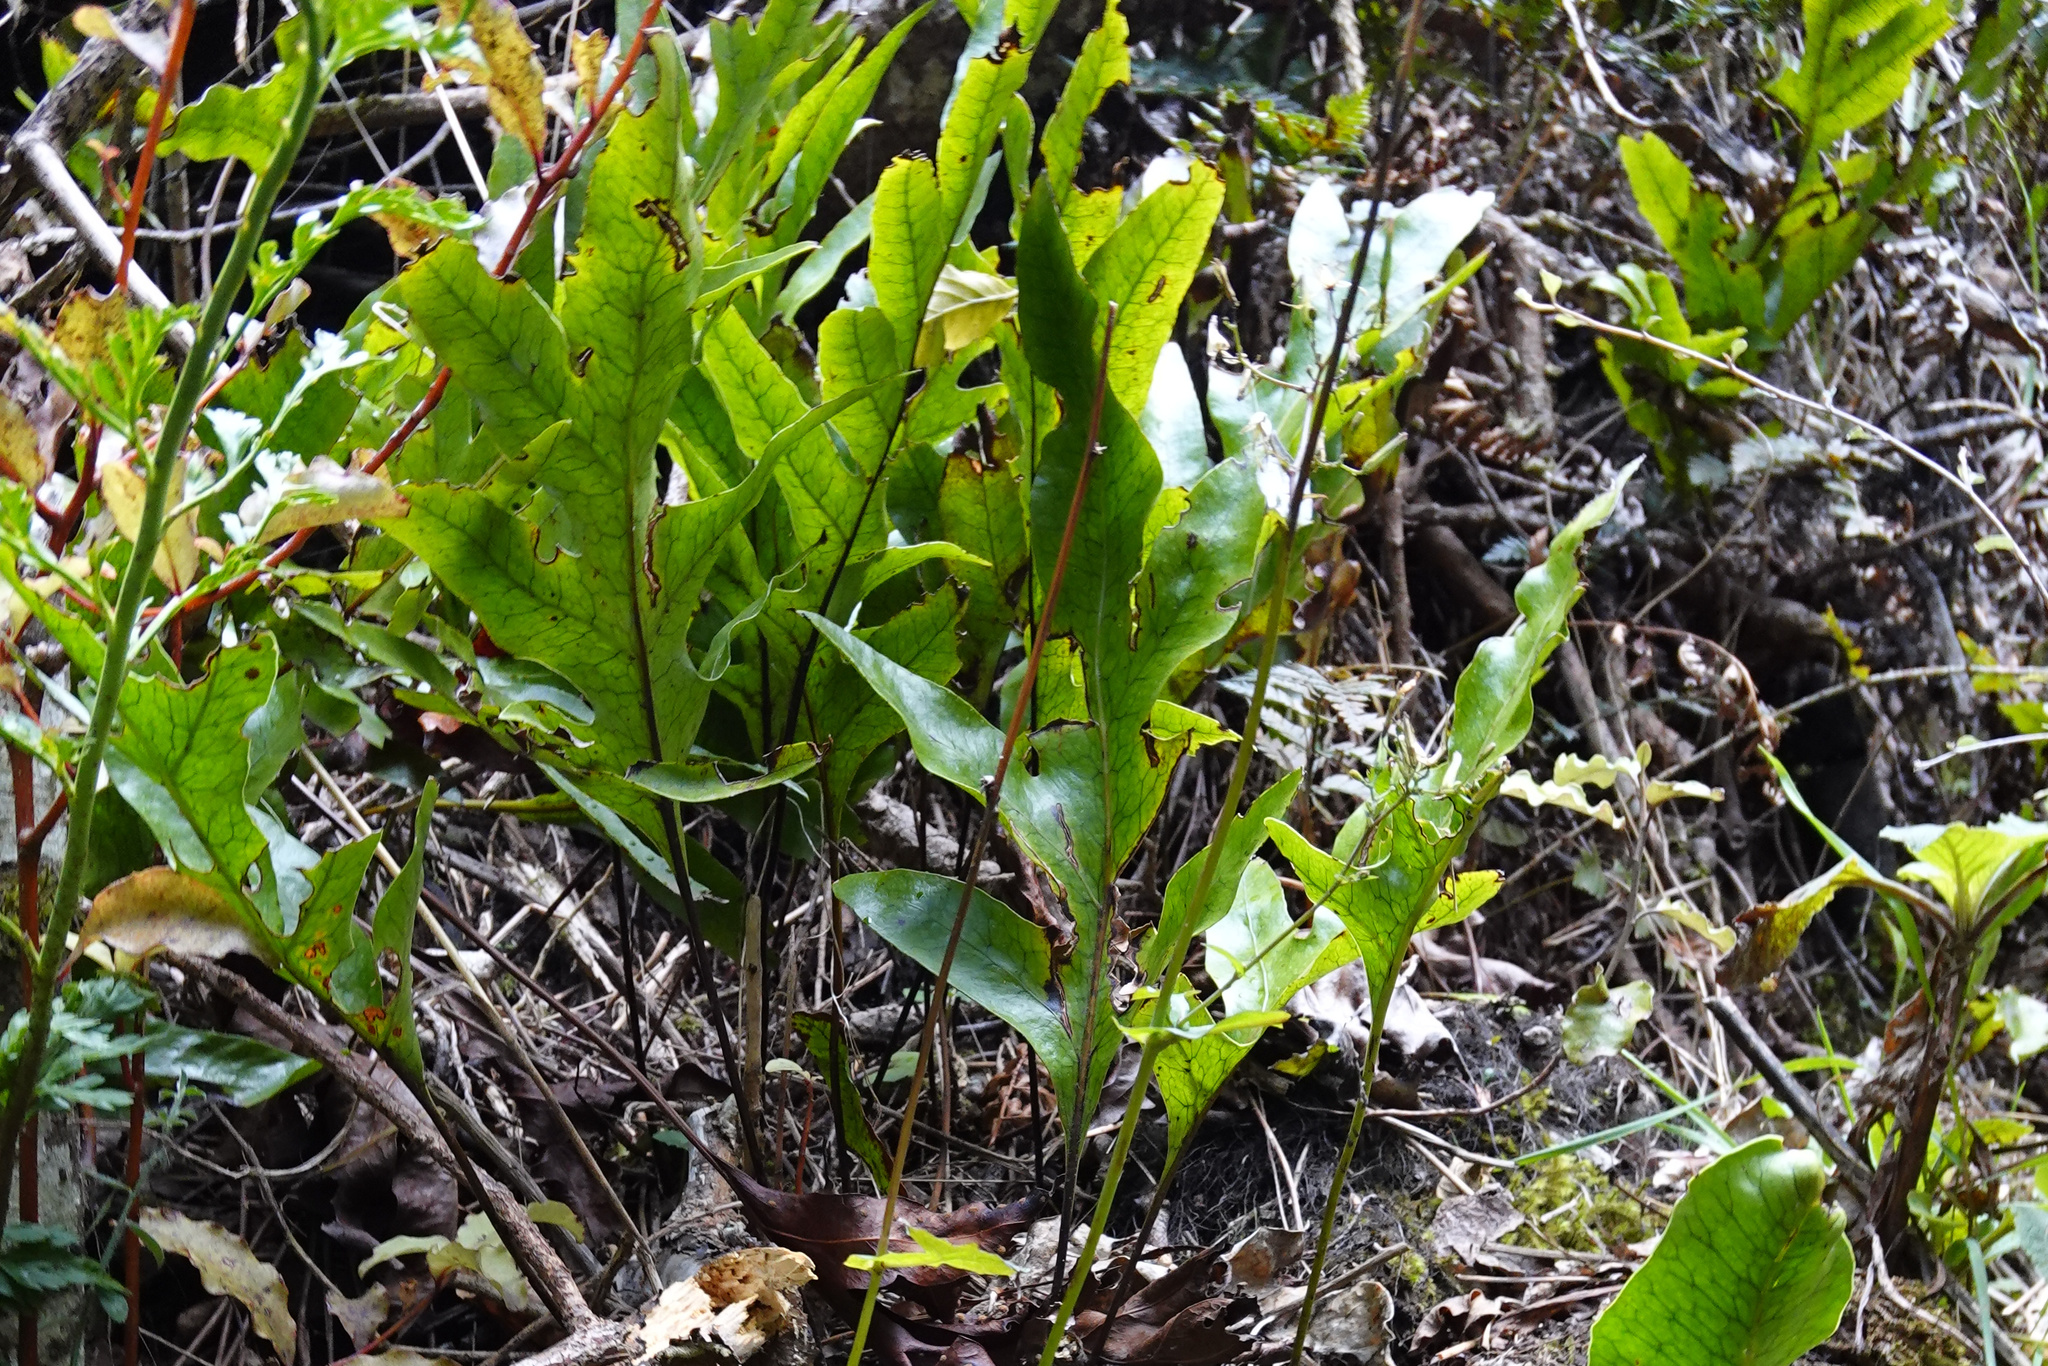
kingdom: Plantae
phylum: Tracheophyta
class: Polypodiopsida
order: Polypodiales
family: Polypodiaceae
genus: Lecanopteris
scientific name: Lecanopteris pustulata
